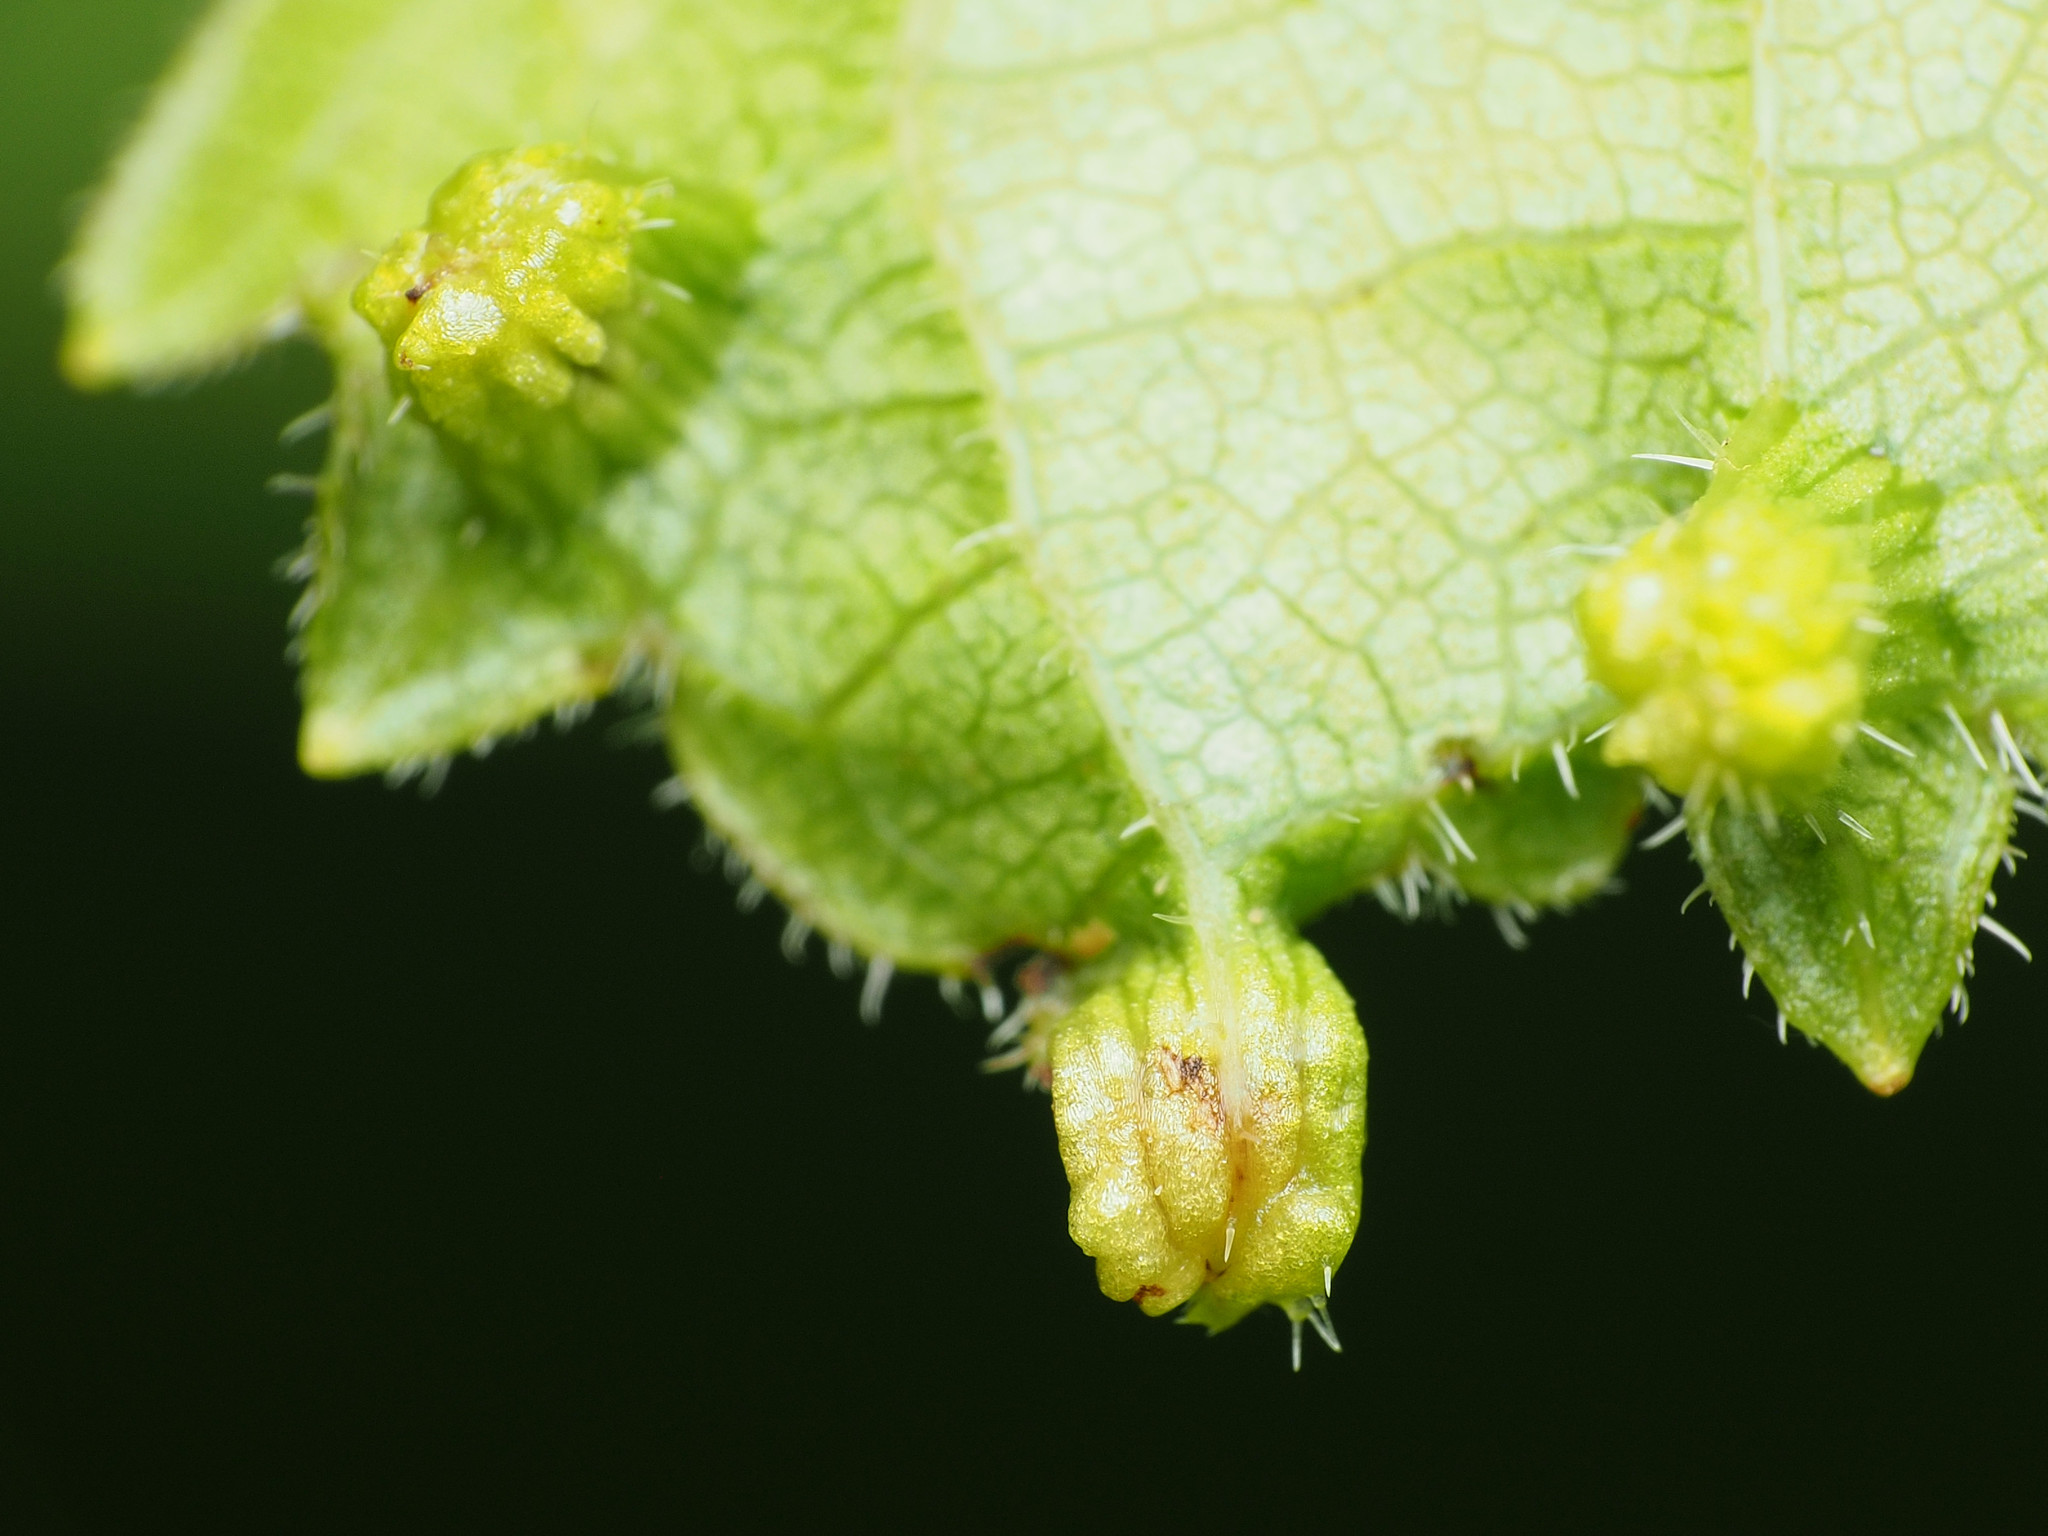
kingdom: Animalia
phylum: Arthropoda
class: Insecta
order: Hemiptera
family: Phylloxeridae
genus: Daktulosphaira
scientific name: Daktulosphaira vitifoliae
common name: Grape phylloxera
